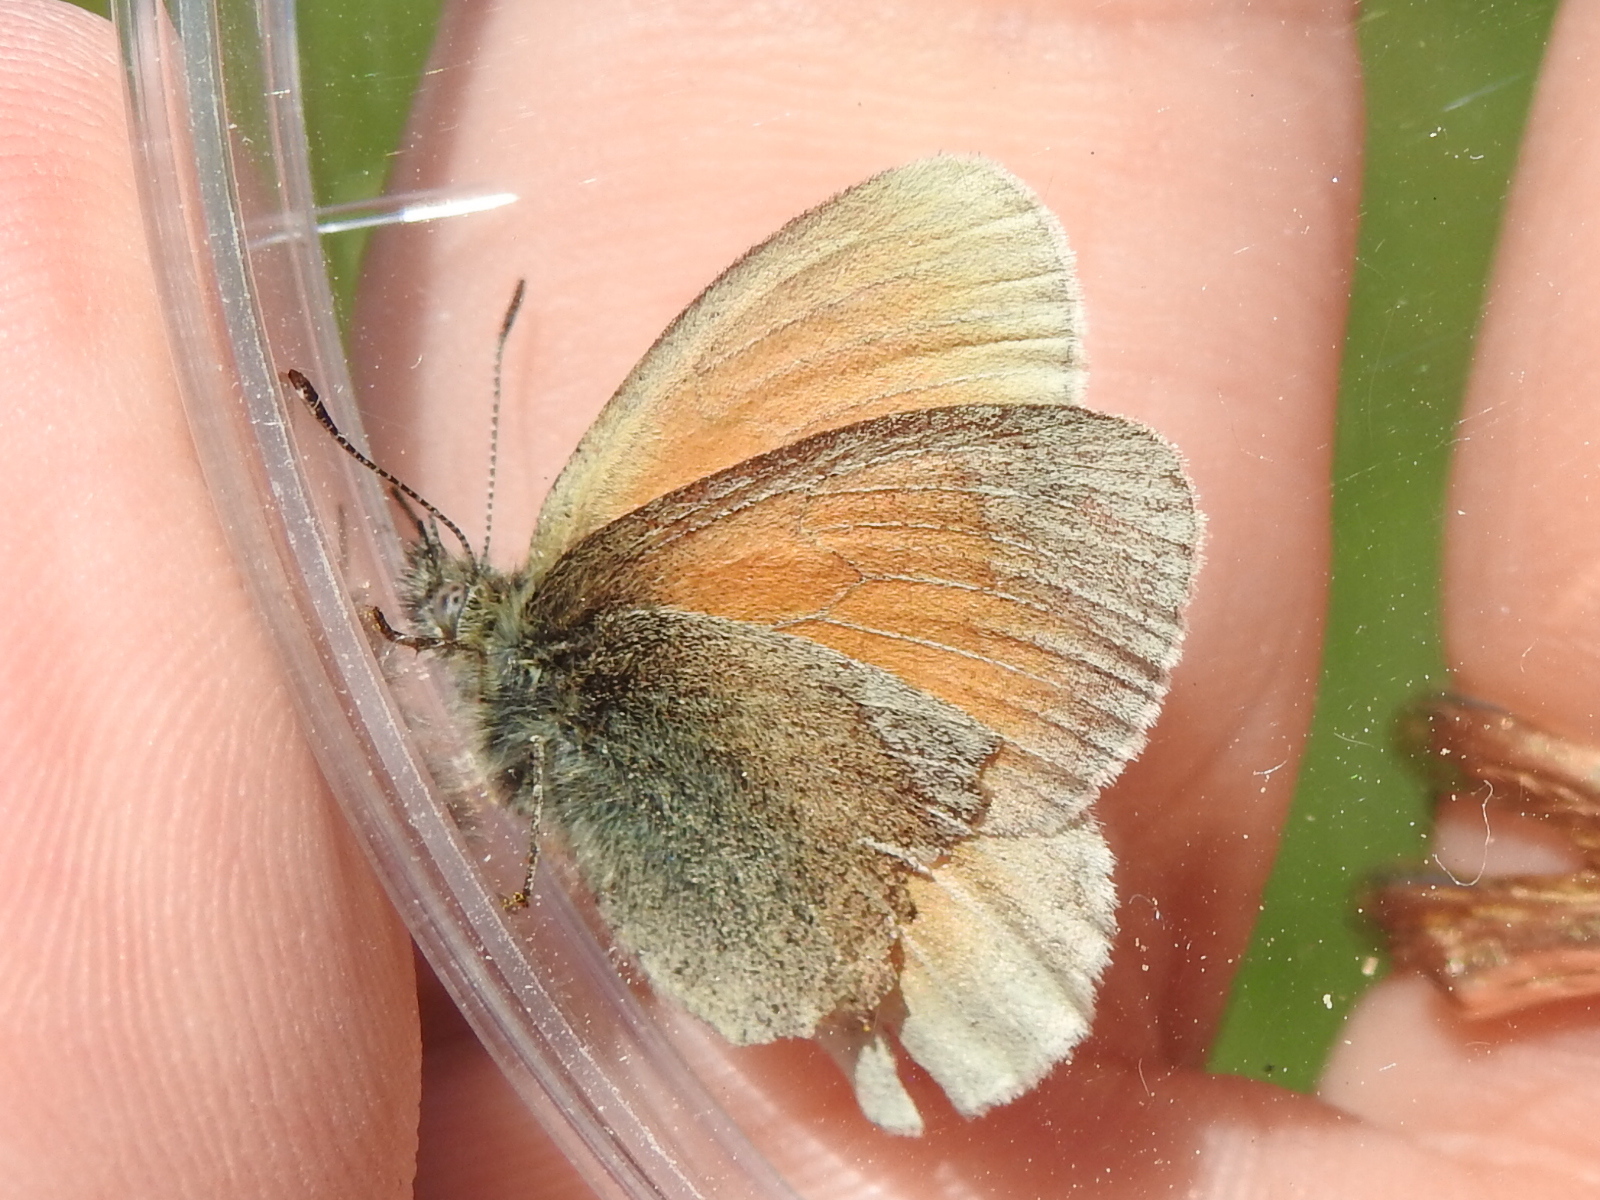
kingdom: Animalia
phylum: Arthropoda
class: Insecta
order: Lepidoptera
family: Nymphalidae
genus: Coenonympha
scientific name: Coenonympha california
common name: Common ringlet
